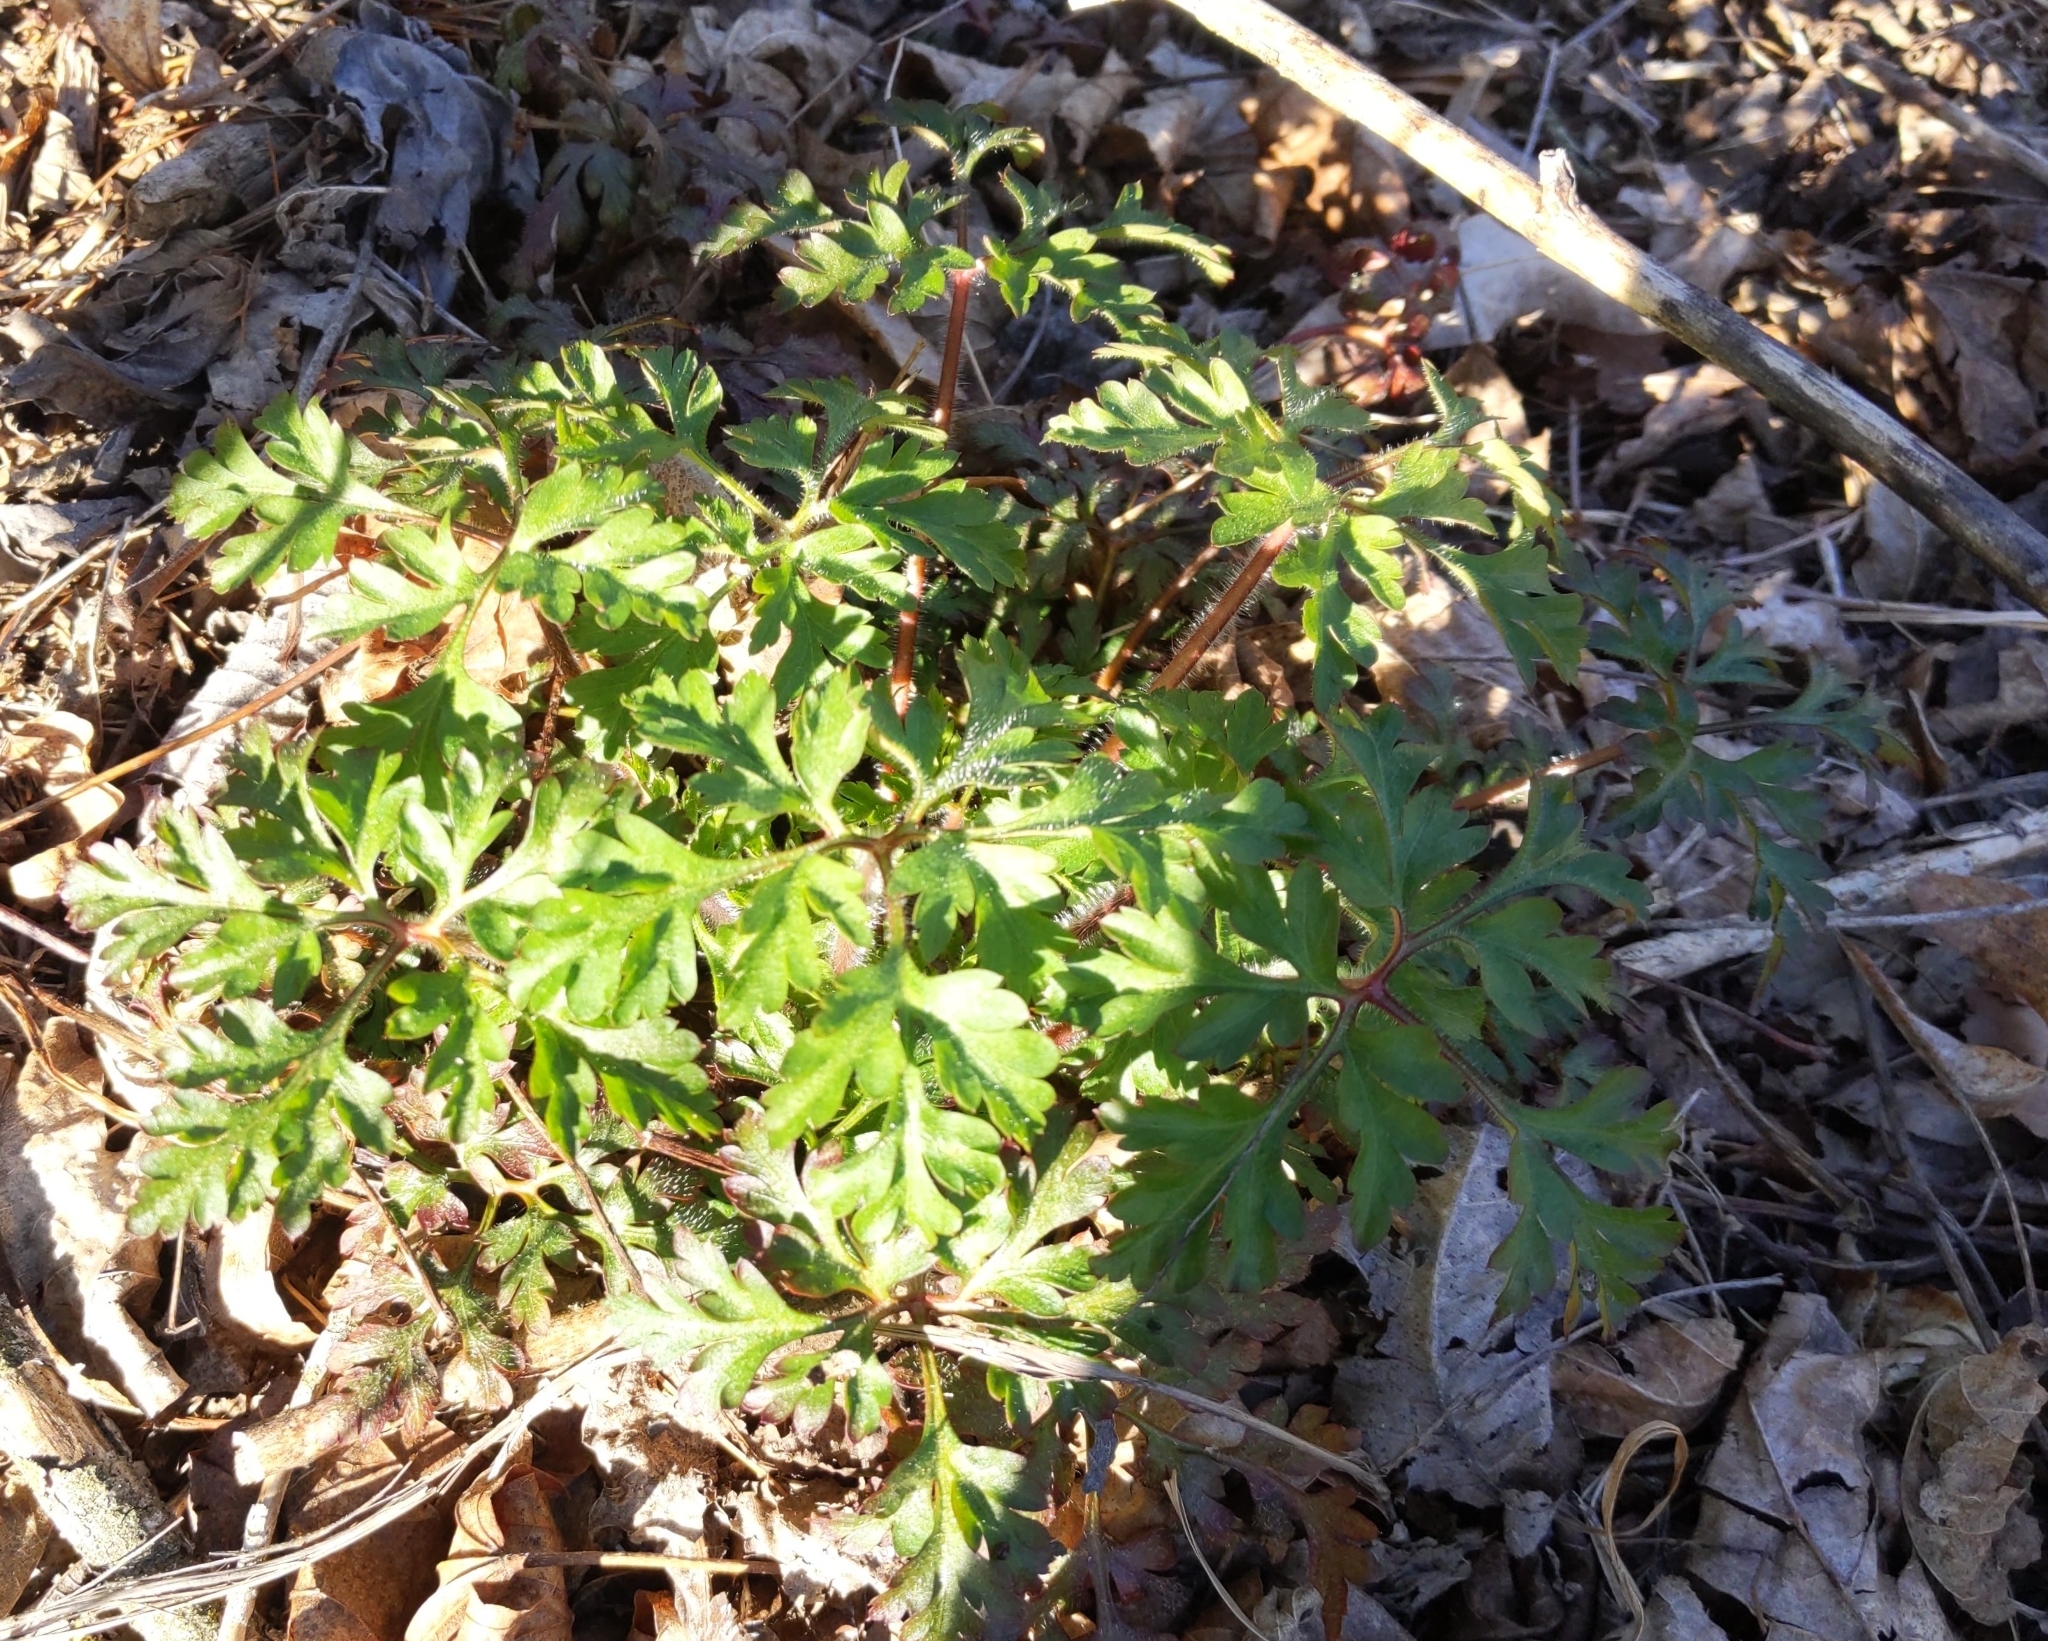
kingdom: Plantae
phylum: Tracheophyta
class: Magnoliopsida
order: Geraniales
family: Geraniaceae
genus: Geranium
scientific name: Geranium robertianum
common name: Herb-robert
